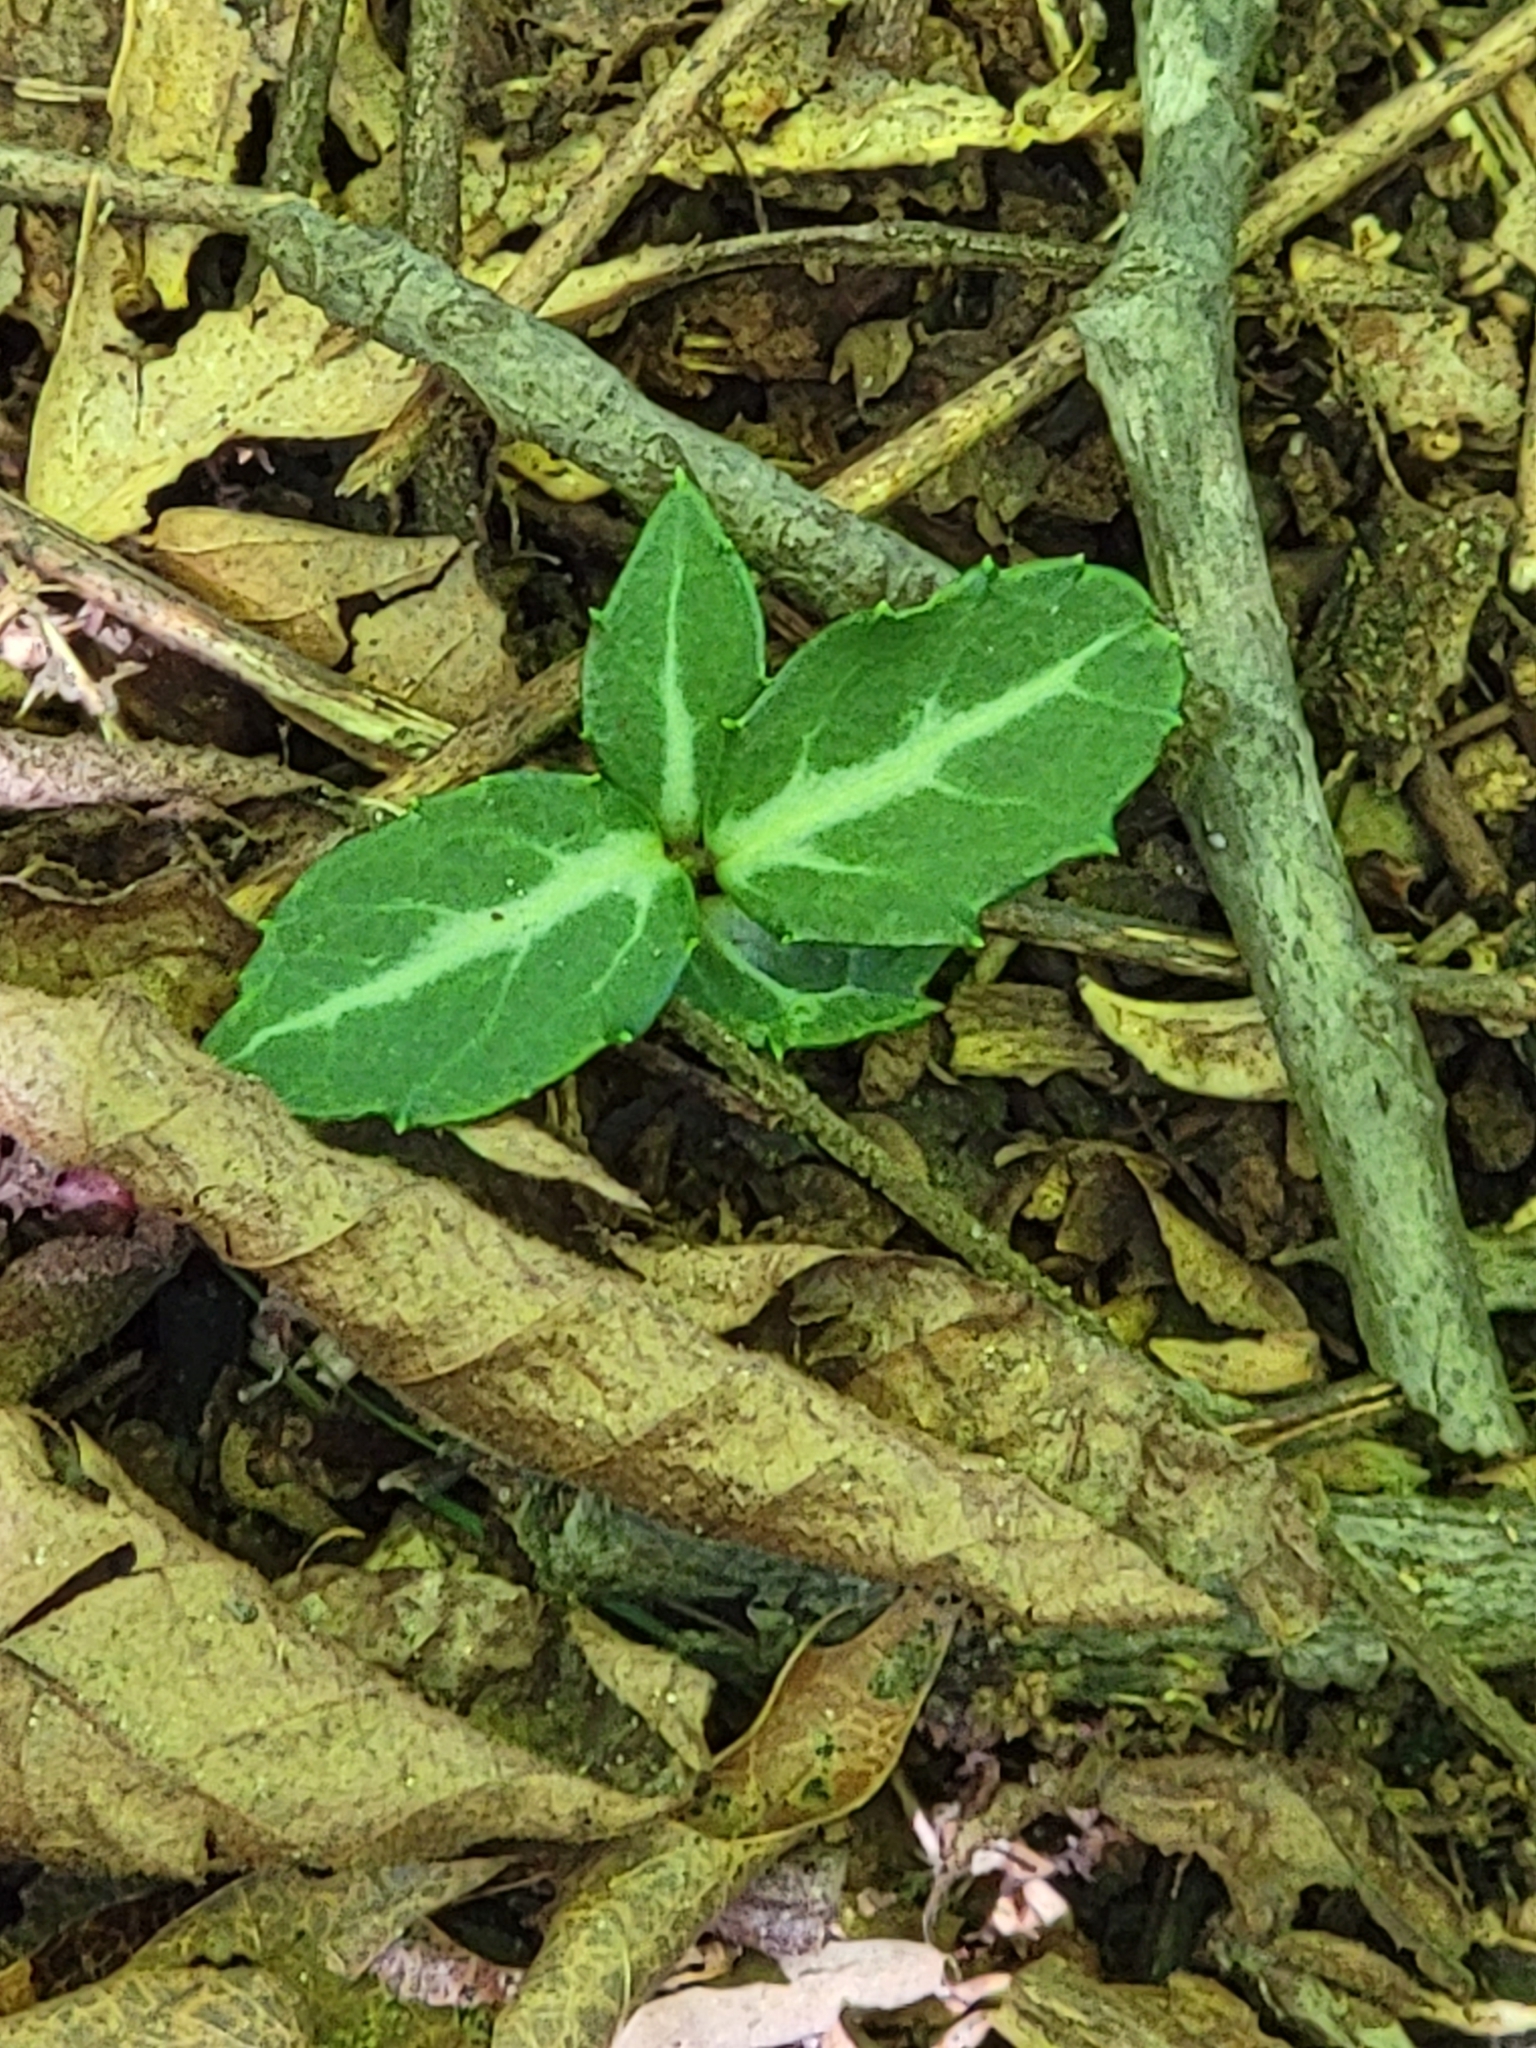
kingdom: Plantae
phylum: Tracheophyta
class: Magnoliopsida
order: Ericales
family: Ericaceae
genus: Chimaphila
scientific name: Chimaphila maculata
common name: Spotted pipsissewa
